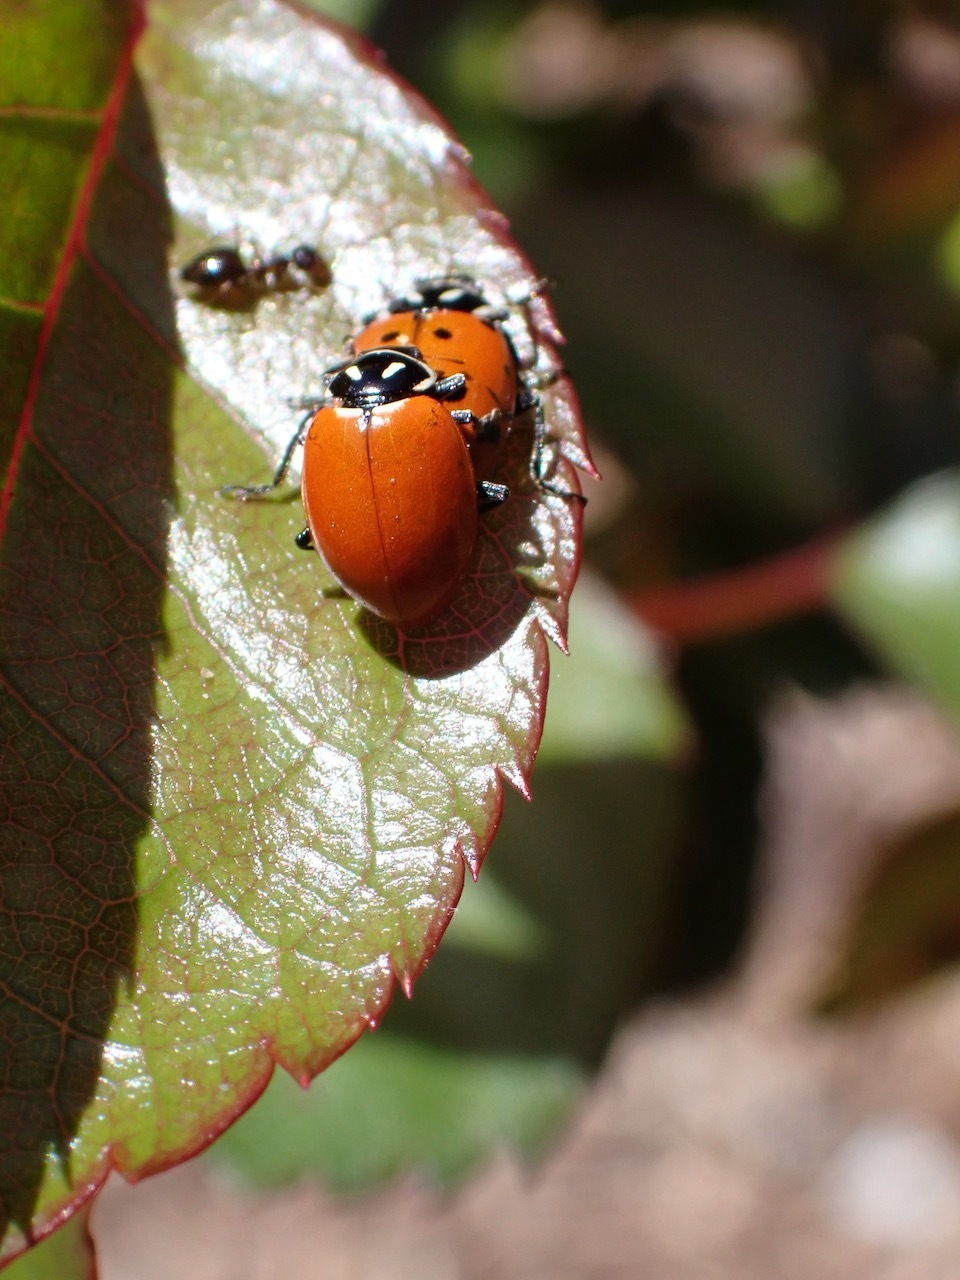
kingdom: Animalia
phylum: Arthropoda
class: Insecta
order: Coleoptera
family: Coccinellidae
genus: Hippodamia
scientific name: Hippodamia convergens
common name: Convergent lady beetle
